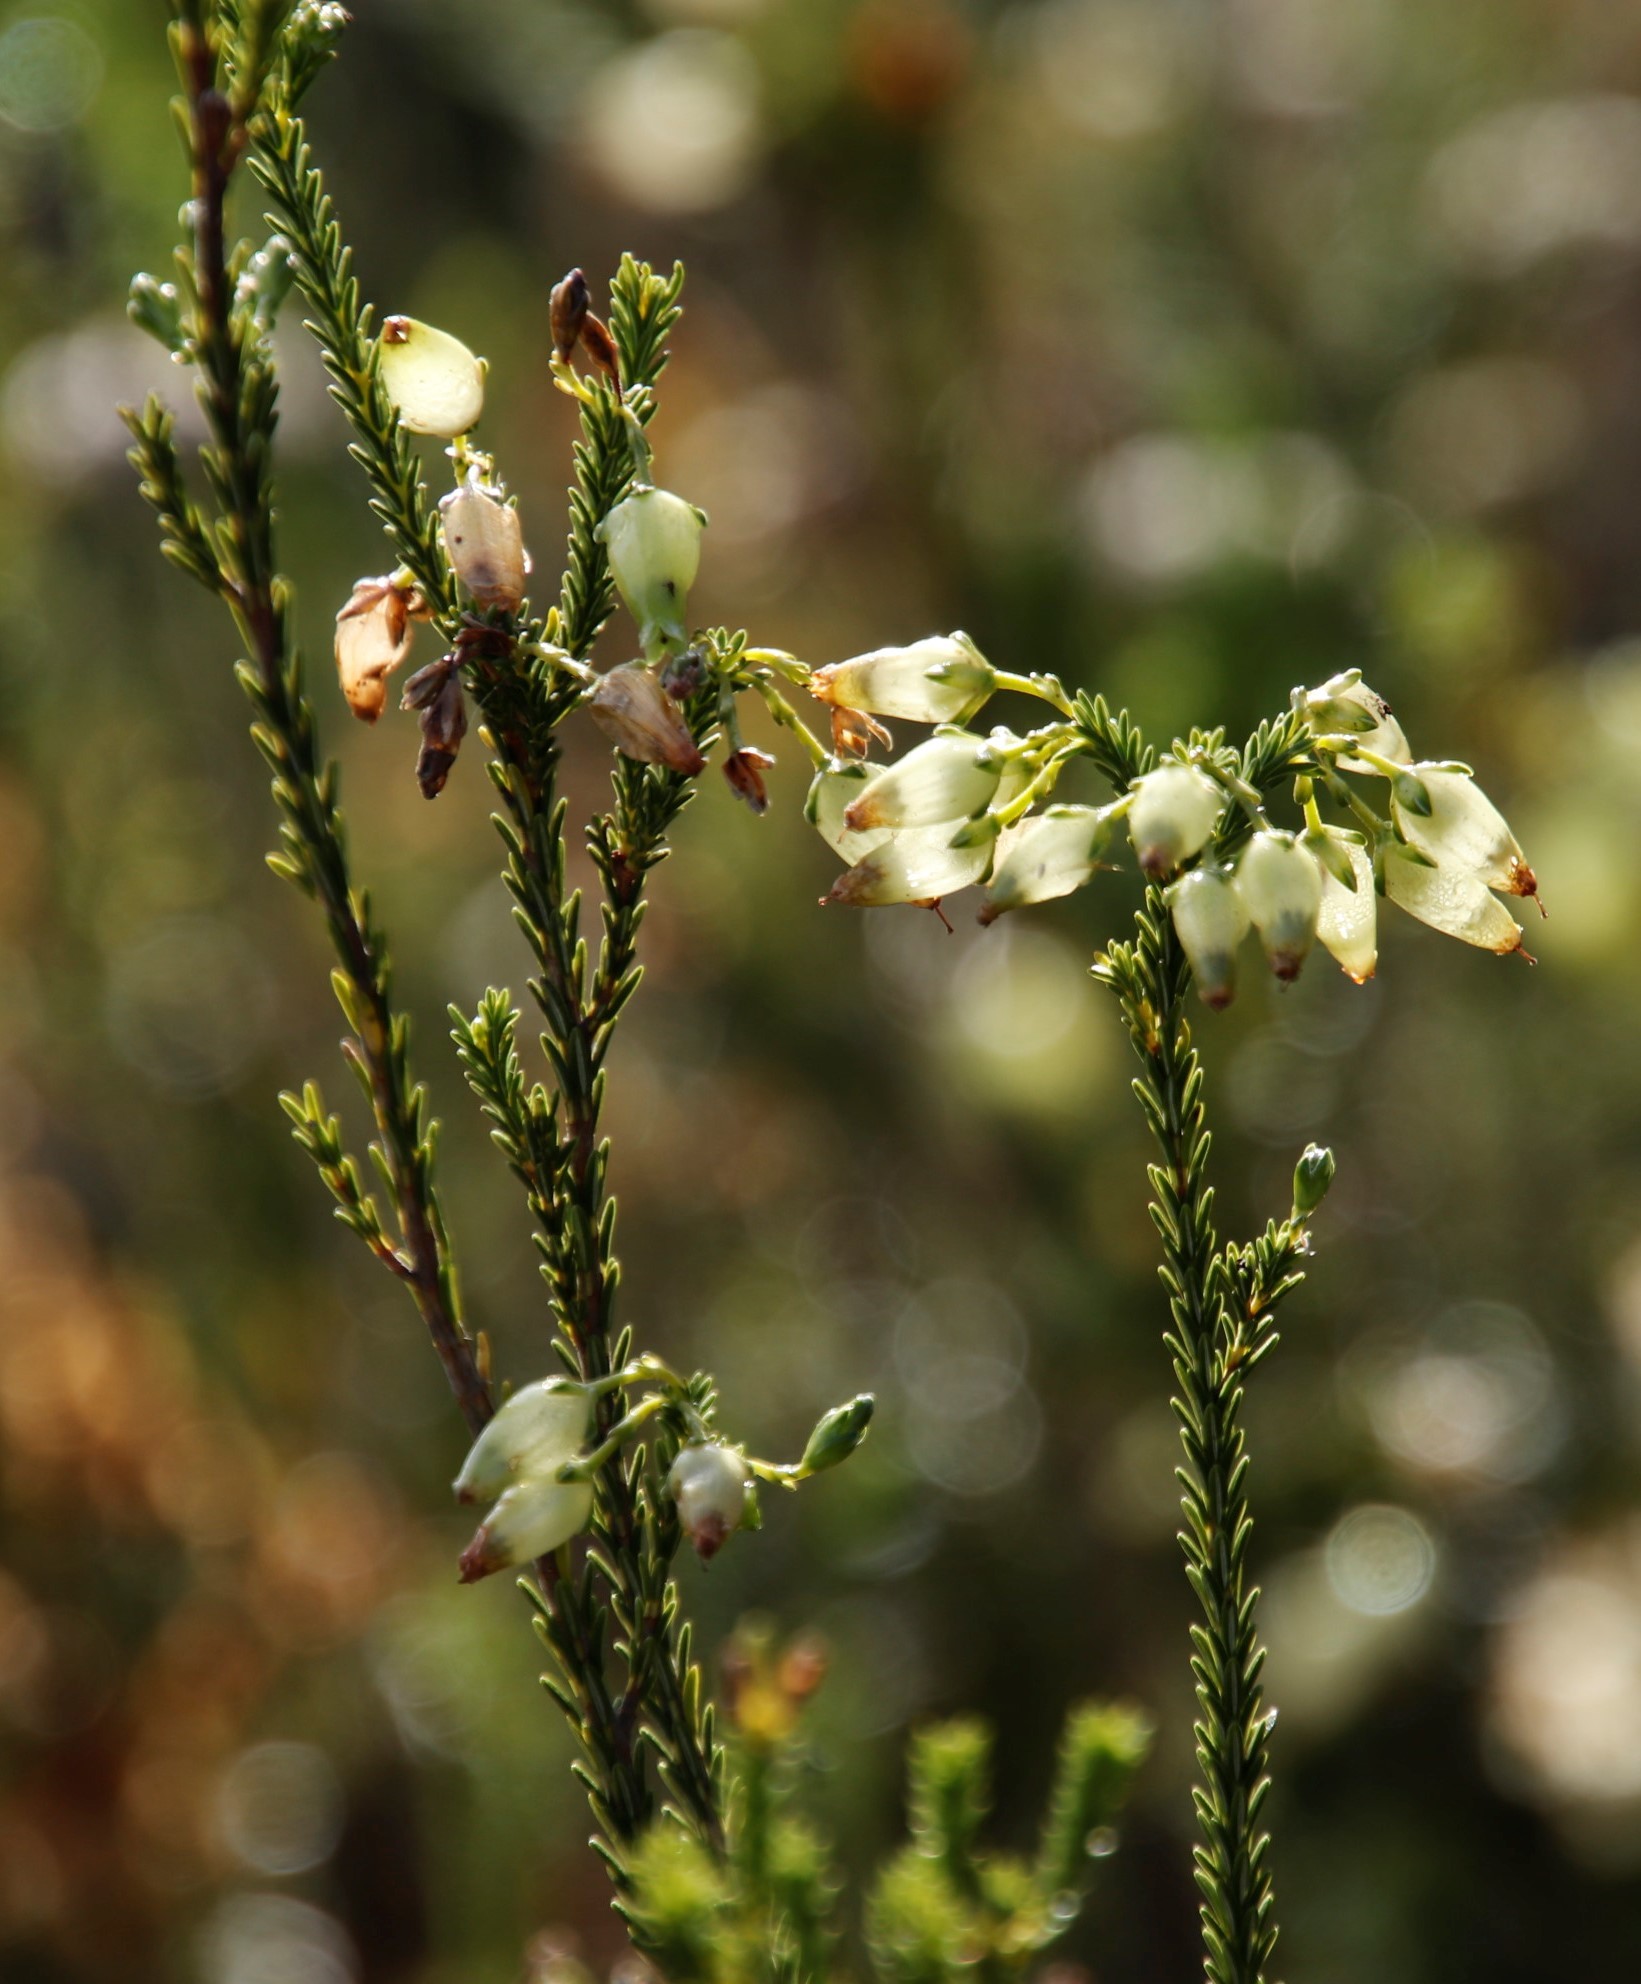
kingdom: Plantae
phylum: Tracheophyta
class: Magnoliopsida
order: Ericales
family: Ericaceae
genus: Erica
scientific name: Erica urna-viridis
